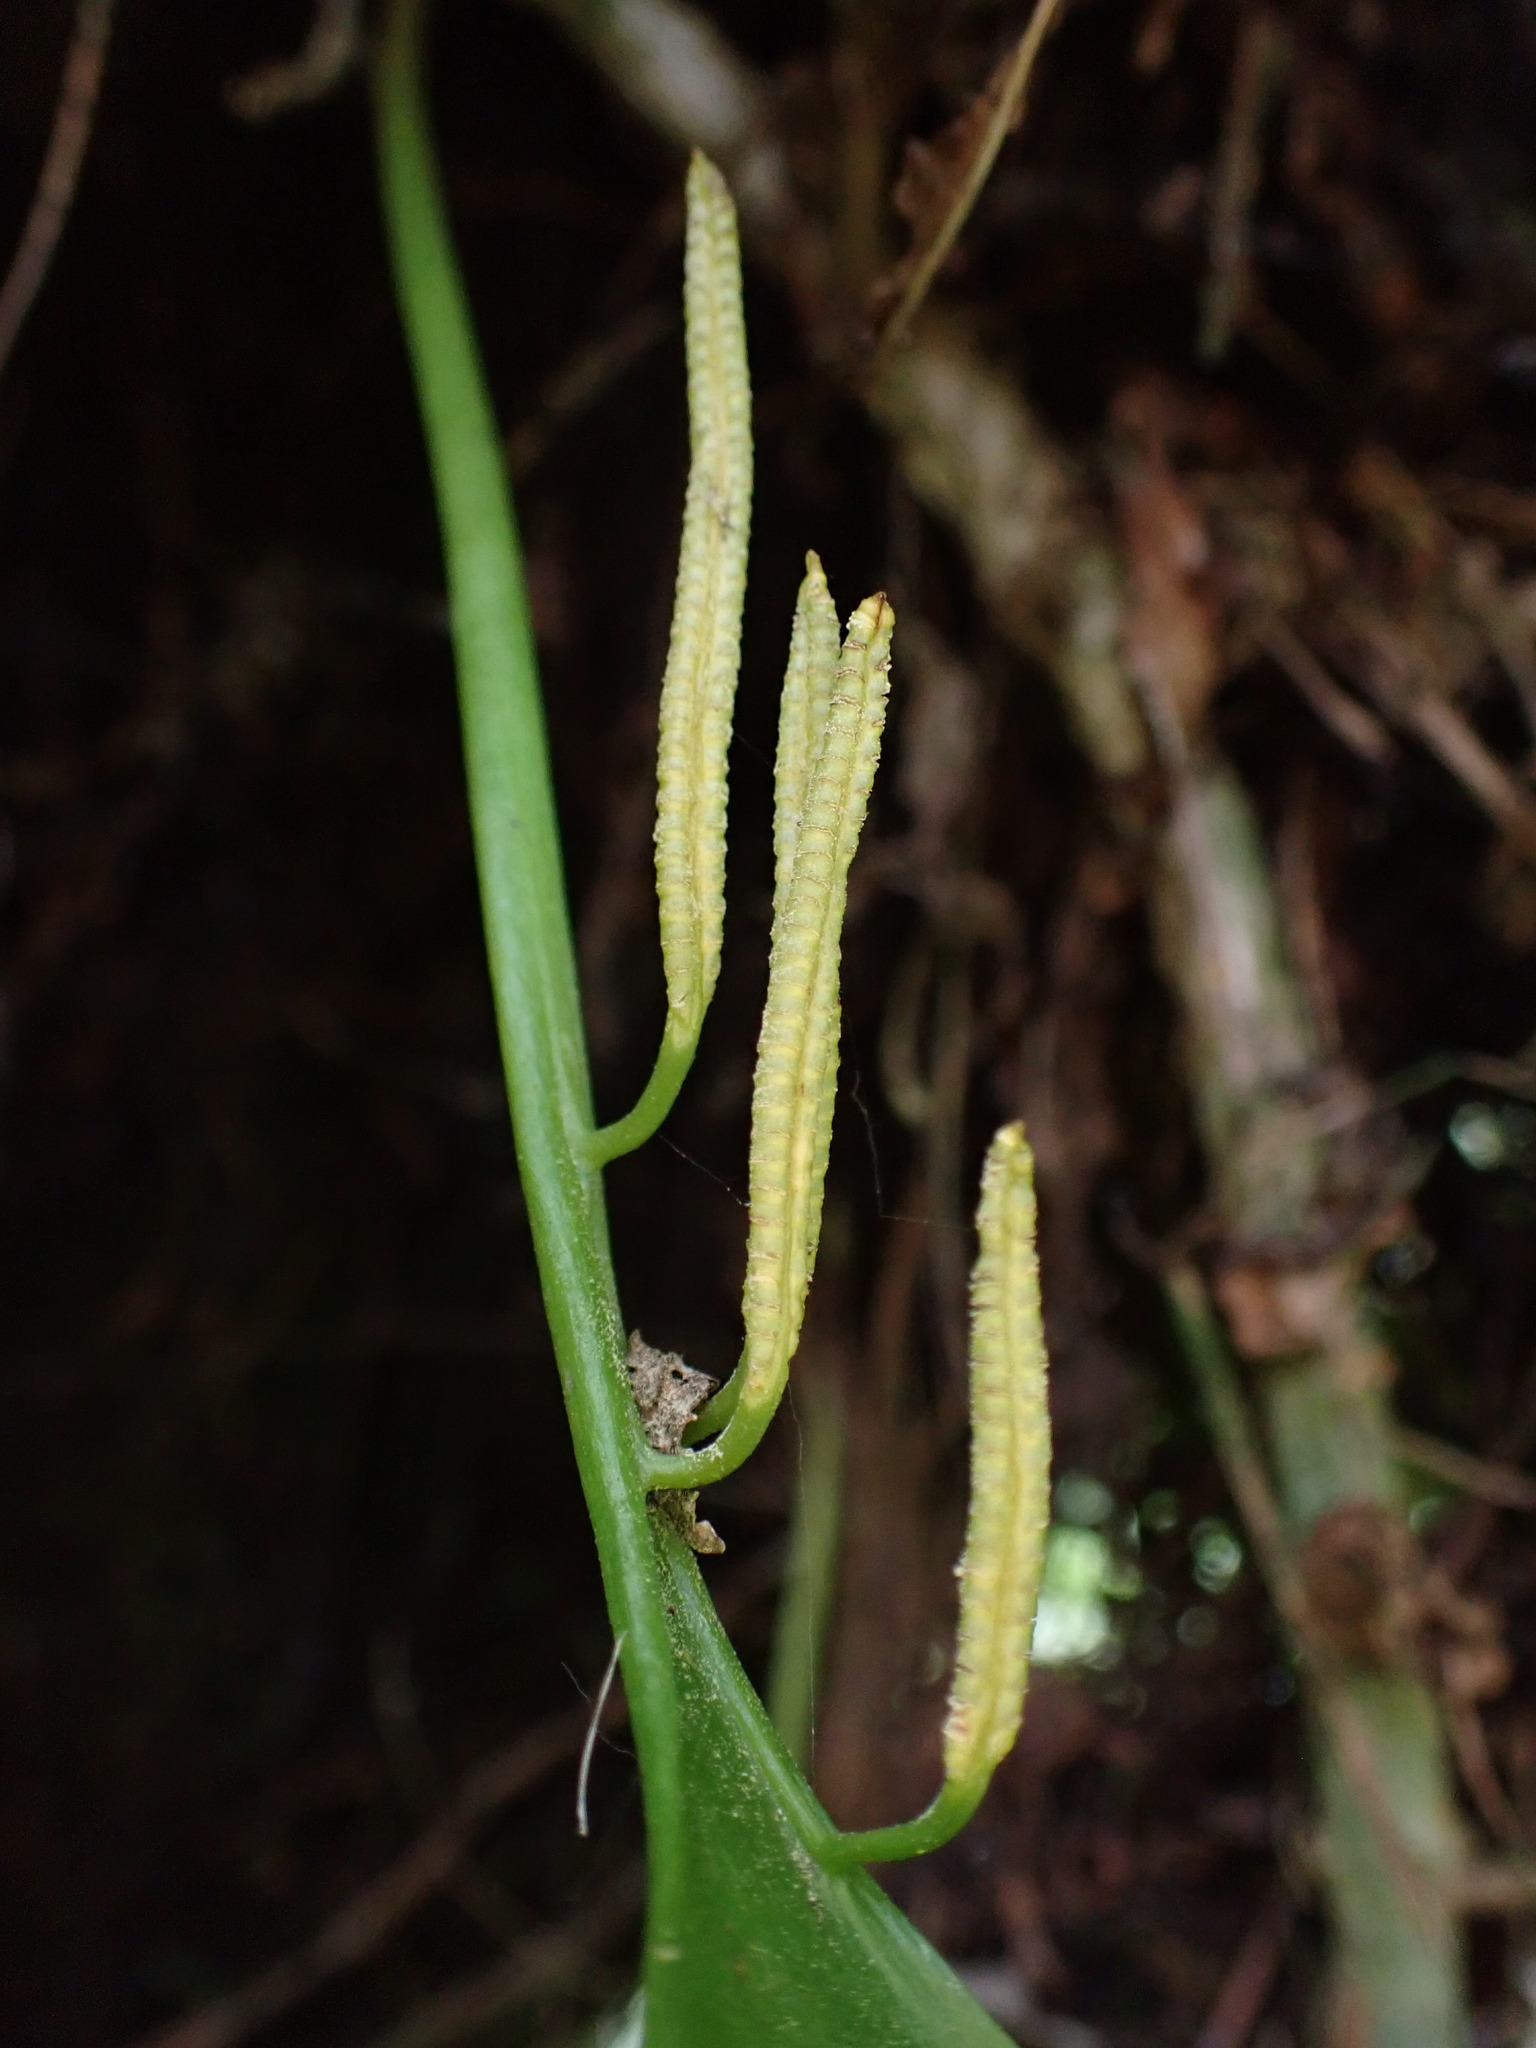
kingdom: Plantae
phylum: Tracheophyta
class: Polypodiopsida
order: Ophioglossales
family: Ophioglossaceae
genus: Cheiroglossa
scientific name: Cheiroglossa palmata
